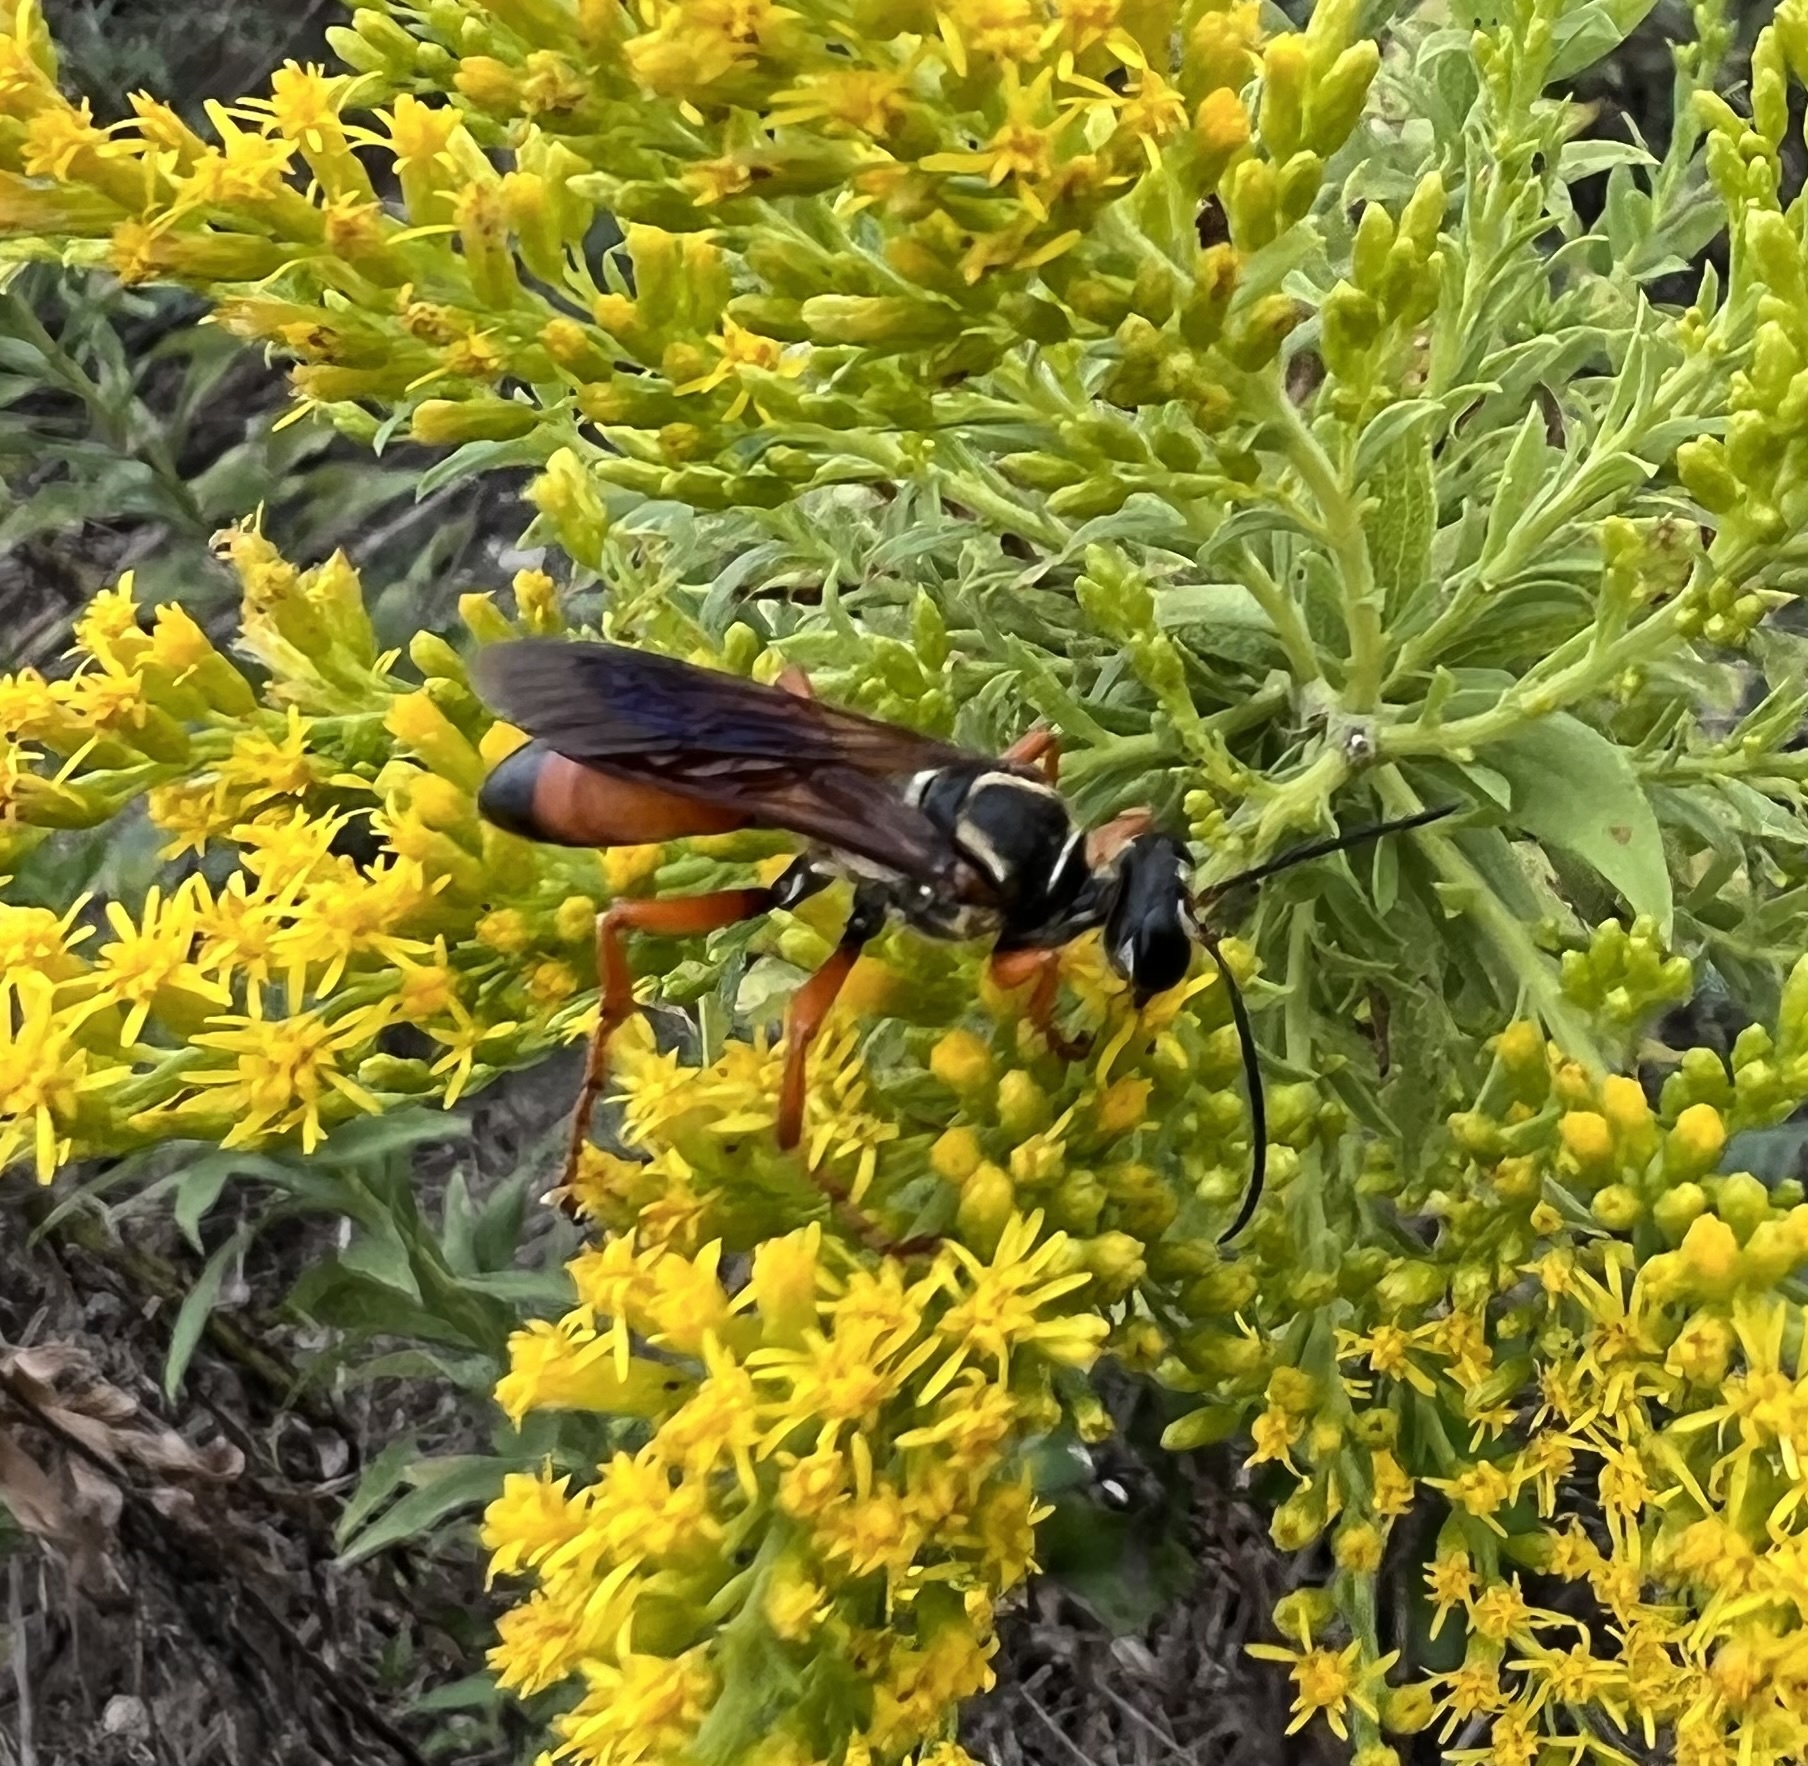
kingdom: Animalia
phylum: Arthropoda
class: Insecta
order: Hymenoptera
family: Sphecidae
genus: Sphex
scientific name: Sphex ichneumoneus
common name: Great golden digger wasp
